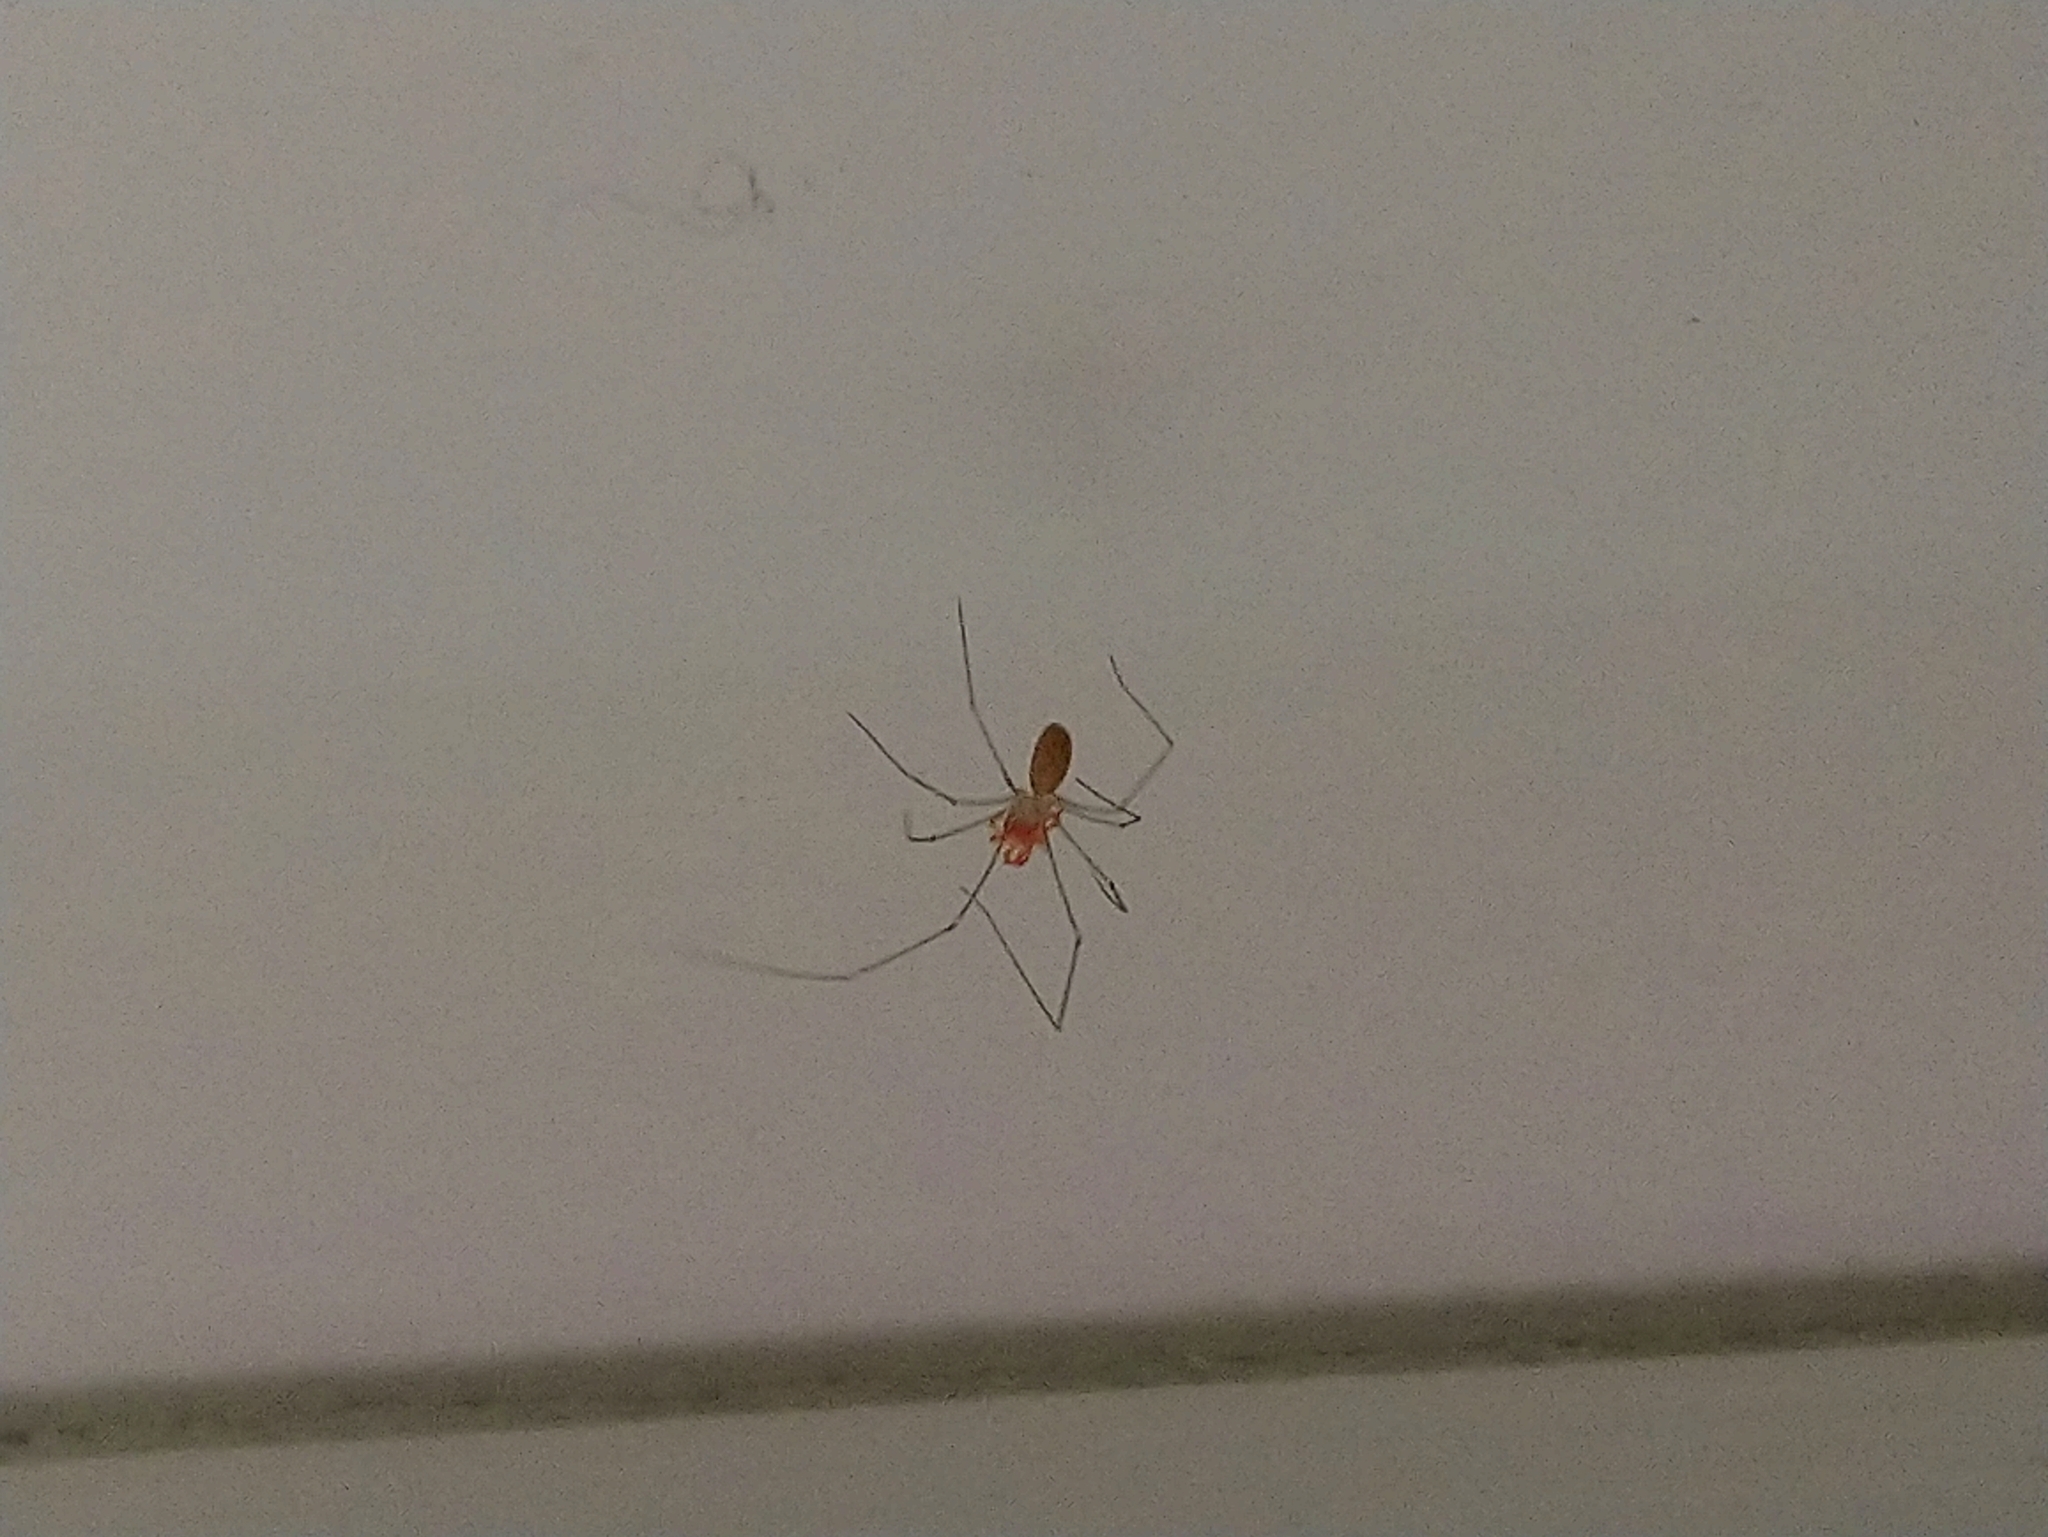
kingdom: Animalia
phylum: Arthropoda
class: Arachnida
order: Araneae
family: Pholcidae
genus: Pholcus
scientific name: Pholcus phalangioides
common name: Longbodied cellar spider
